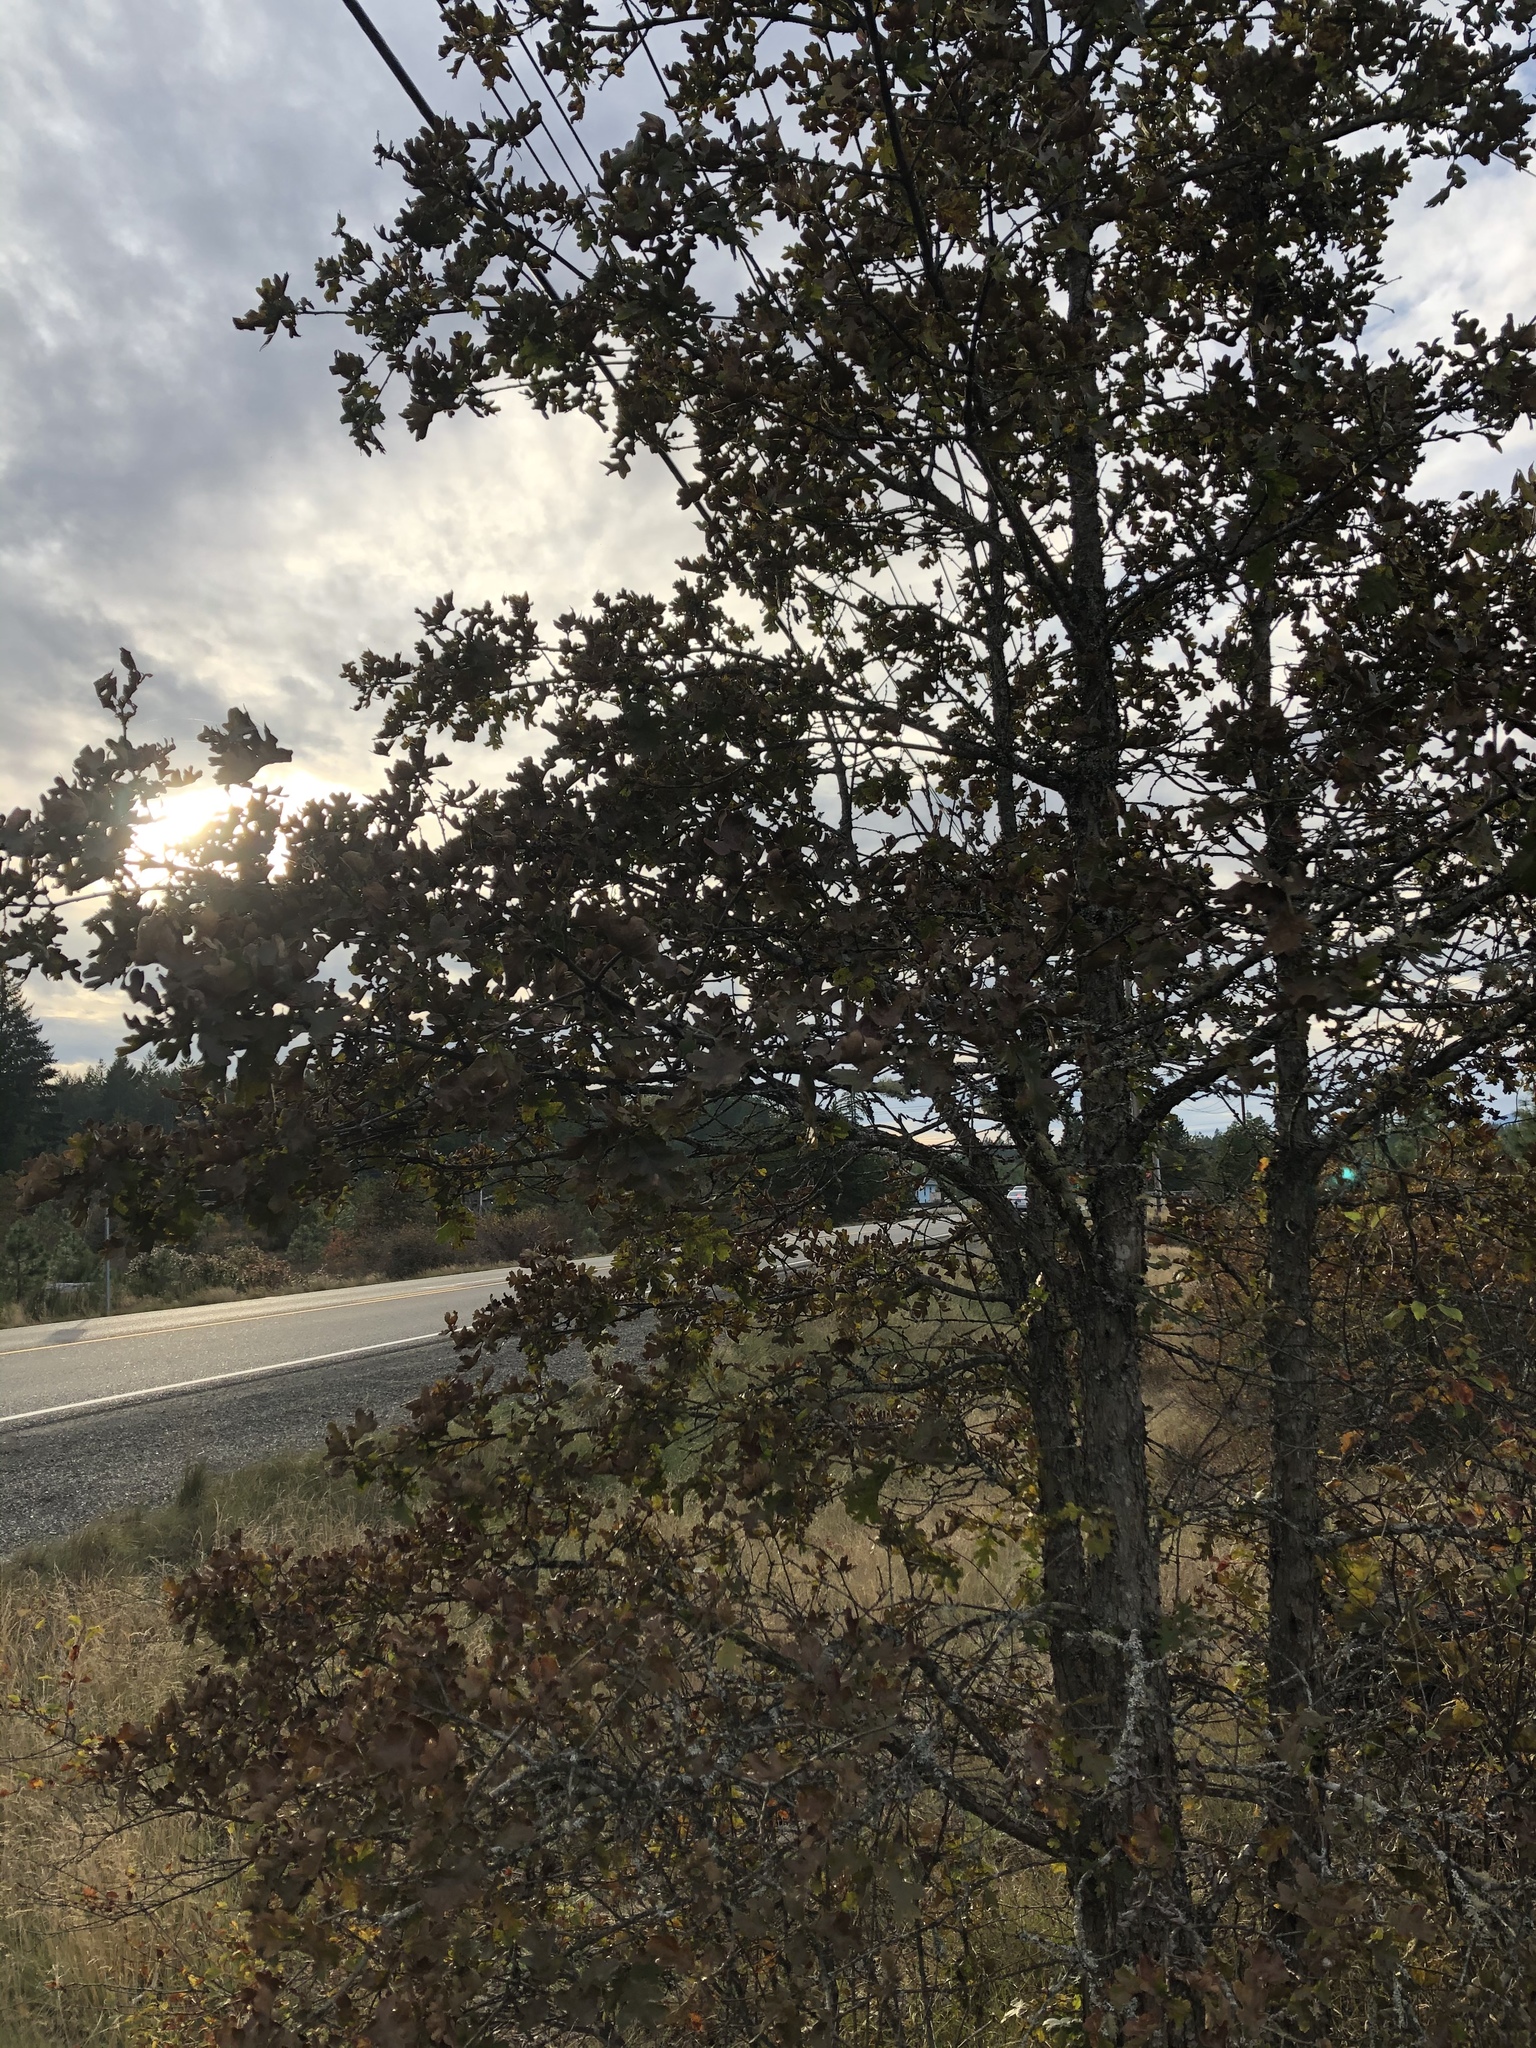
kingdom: Plantae
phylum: Tracheophyta
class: Magnoliopsida
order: Fagales
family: Fagaceae
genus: Quercus
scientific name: Quercus garryana
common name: Garry oak
